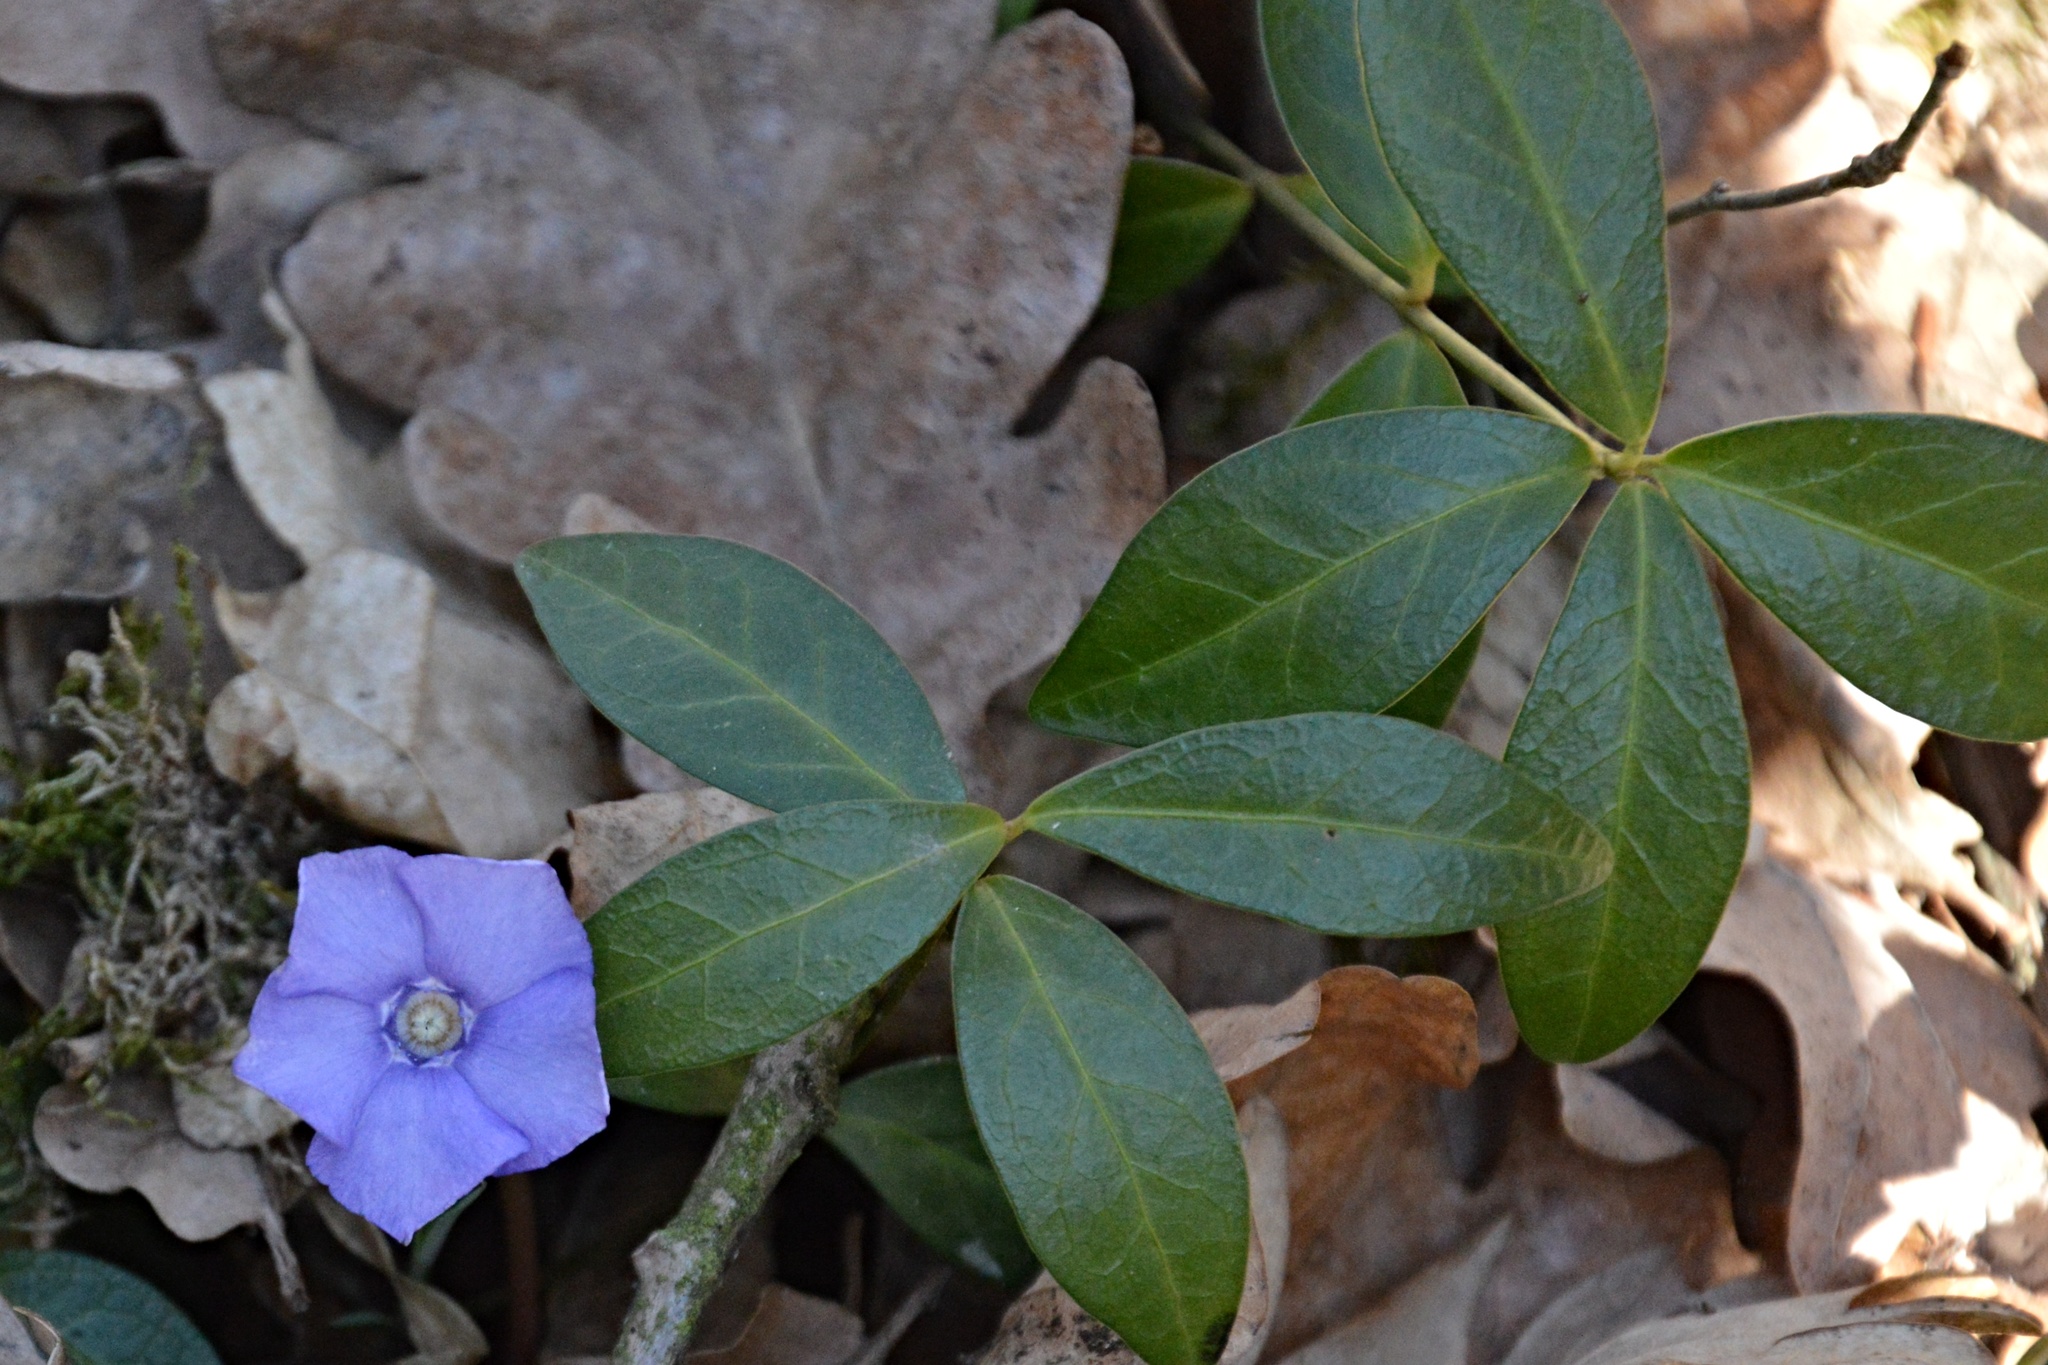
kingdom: Plantae
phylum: Tracheophyta
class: Magnoliopsida
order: Gentianales
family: Apocynaceae
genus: Vinca
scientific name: Vinca minor
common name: Lesser periwinkle
